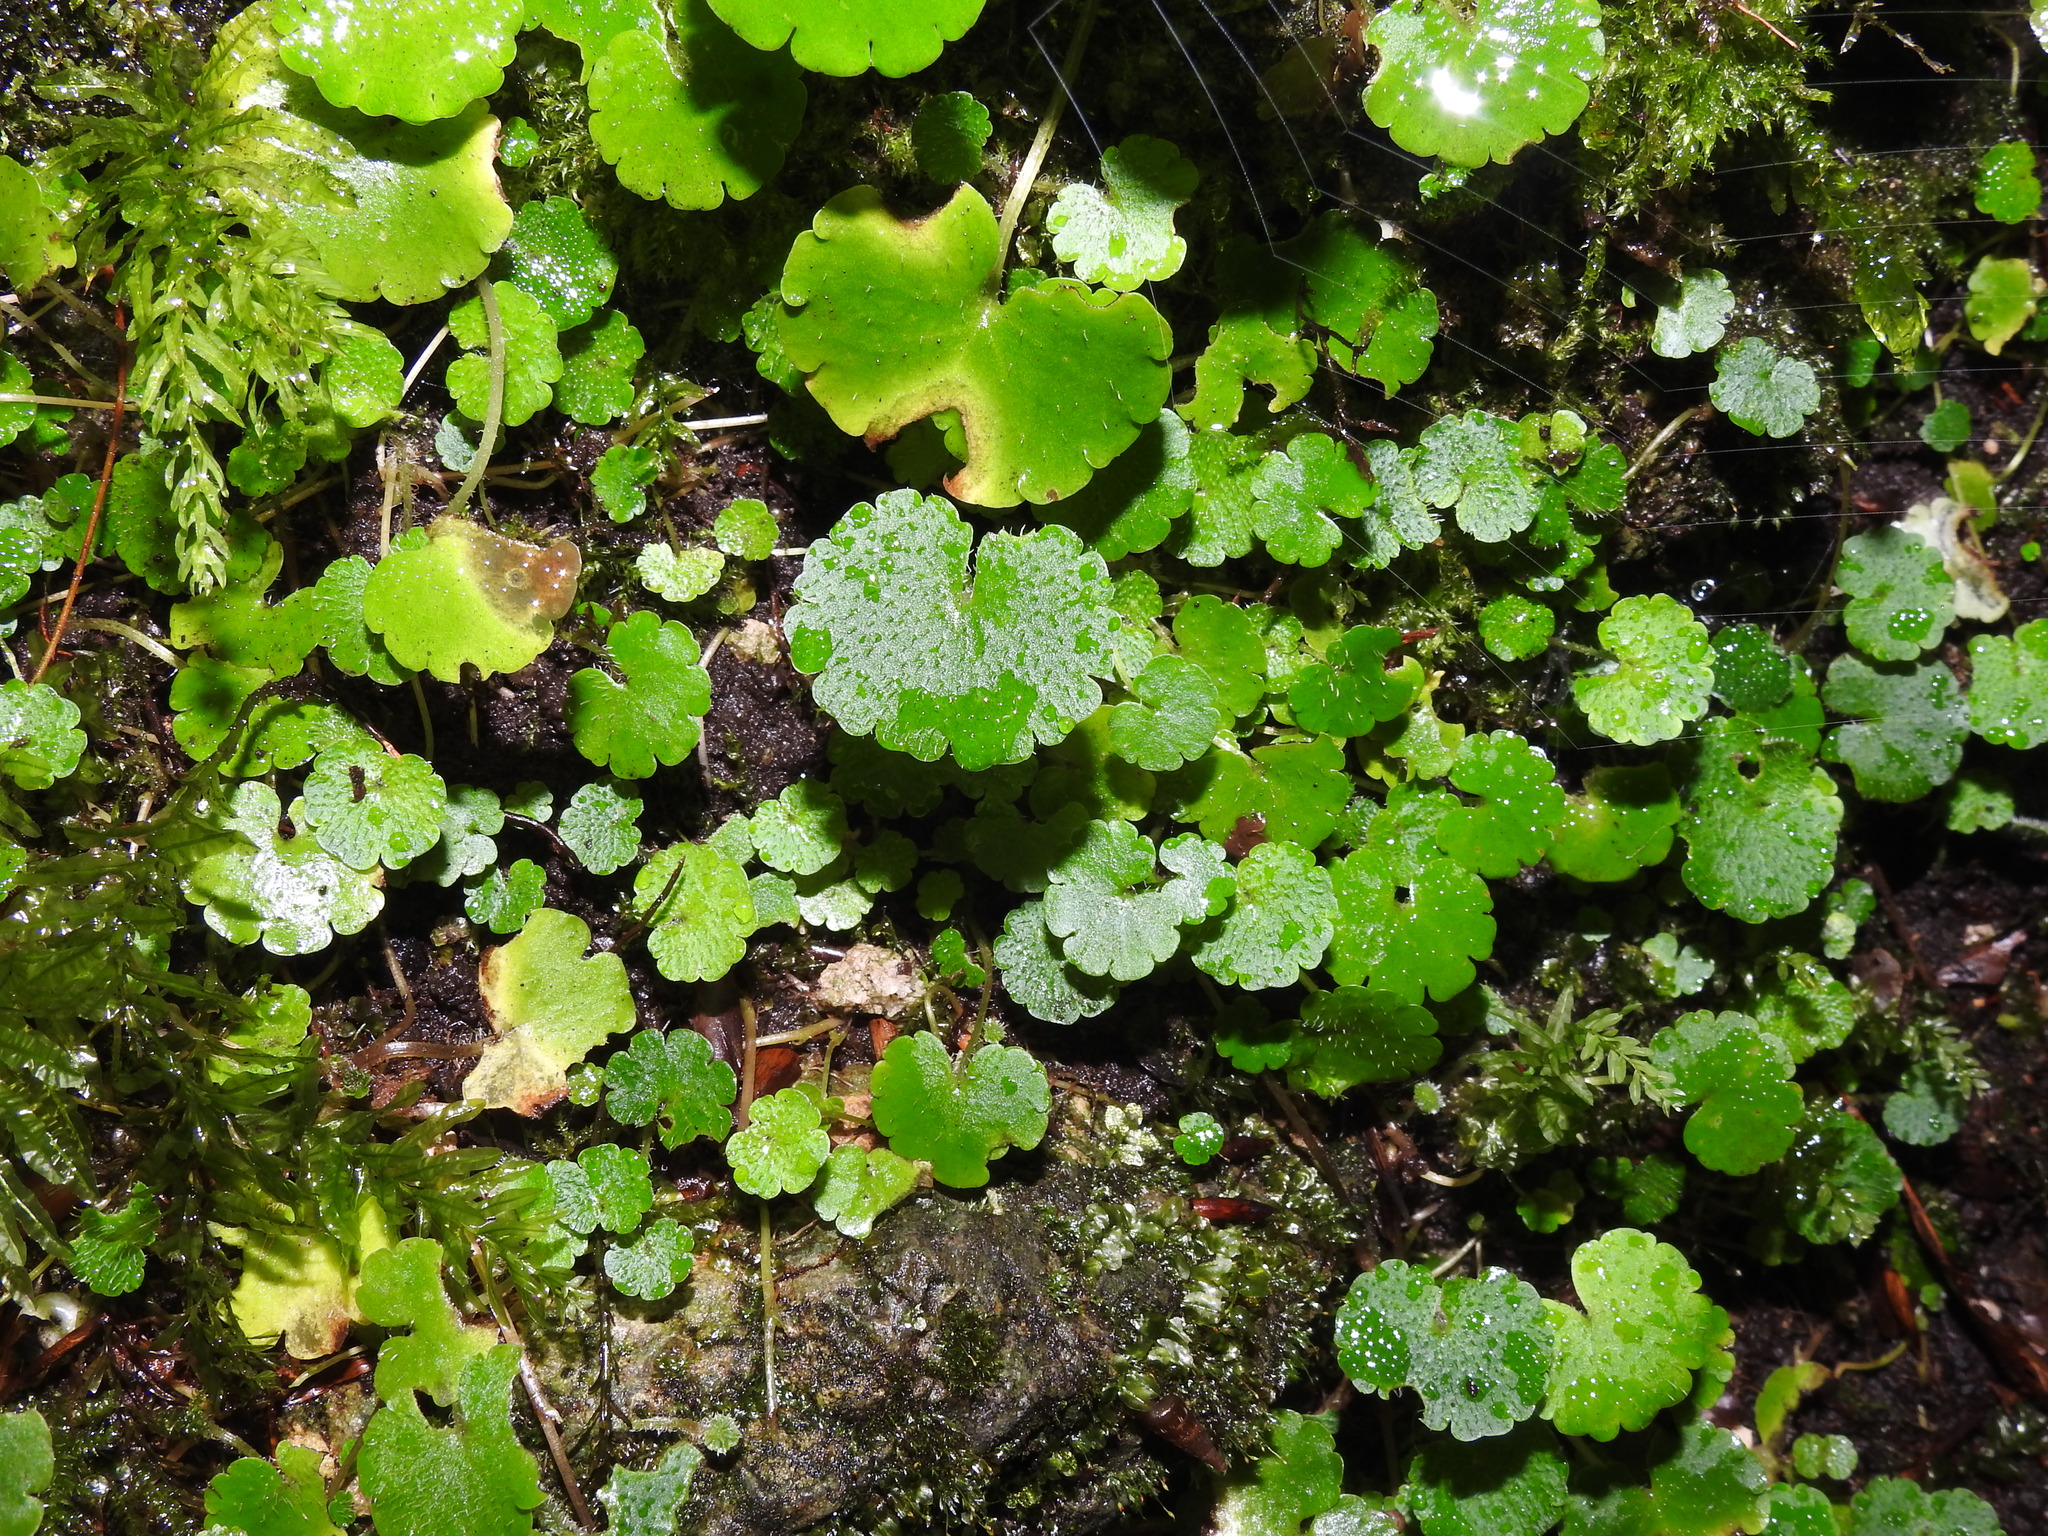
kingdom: Plantae
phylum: Tracheophyta
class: Magnoliopsida
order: Saxifragales
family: Saxifragaceae
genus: Chrysosplenium
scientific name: Chrysosplenium alternifolium
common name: Alternate-leaved golden-saxifrage
